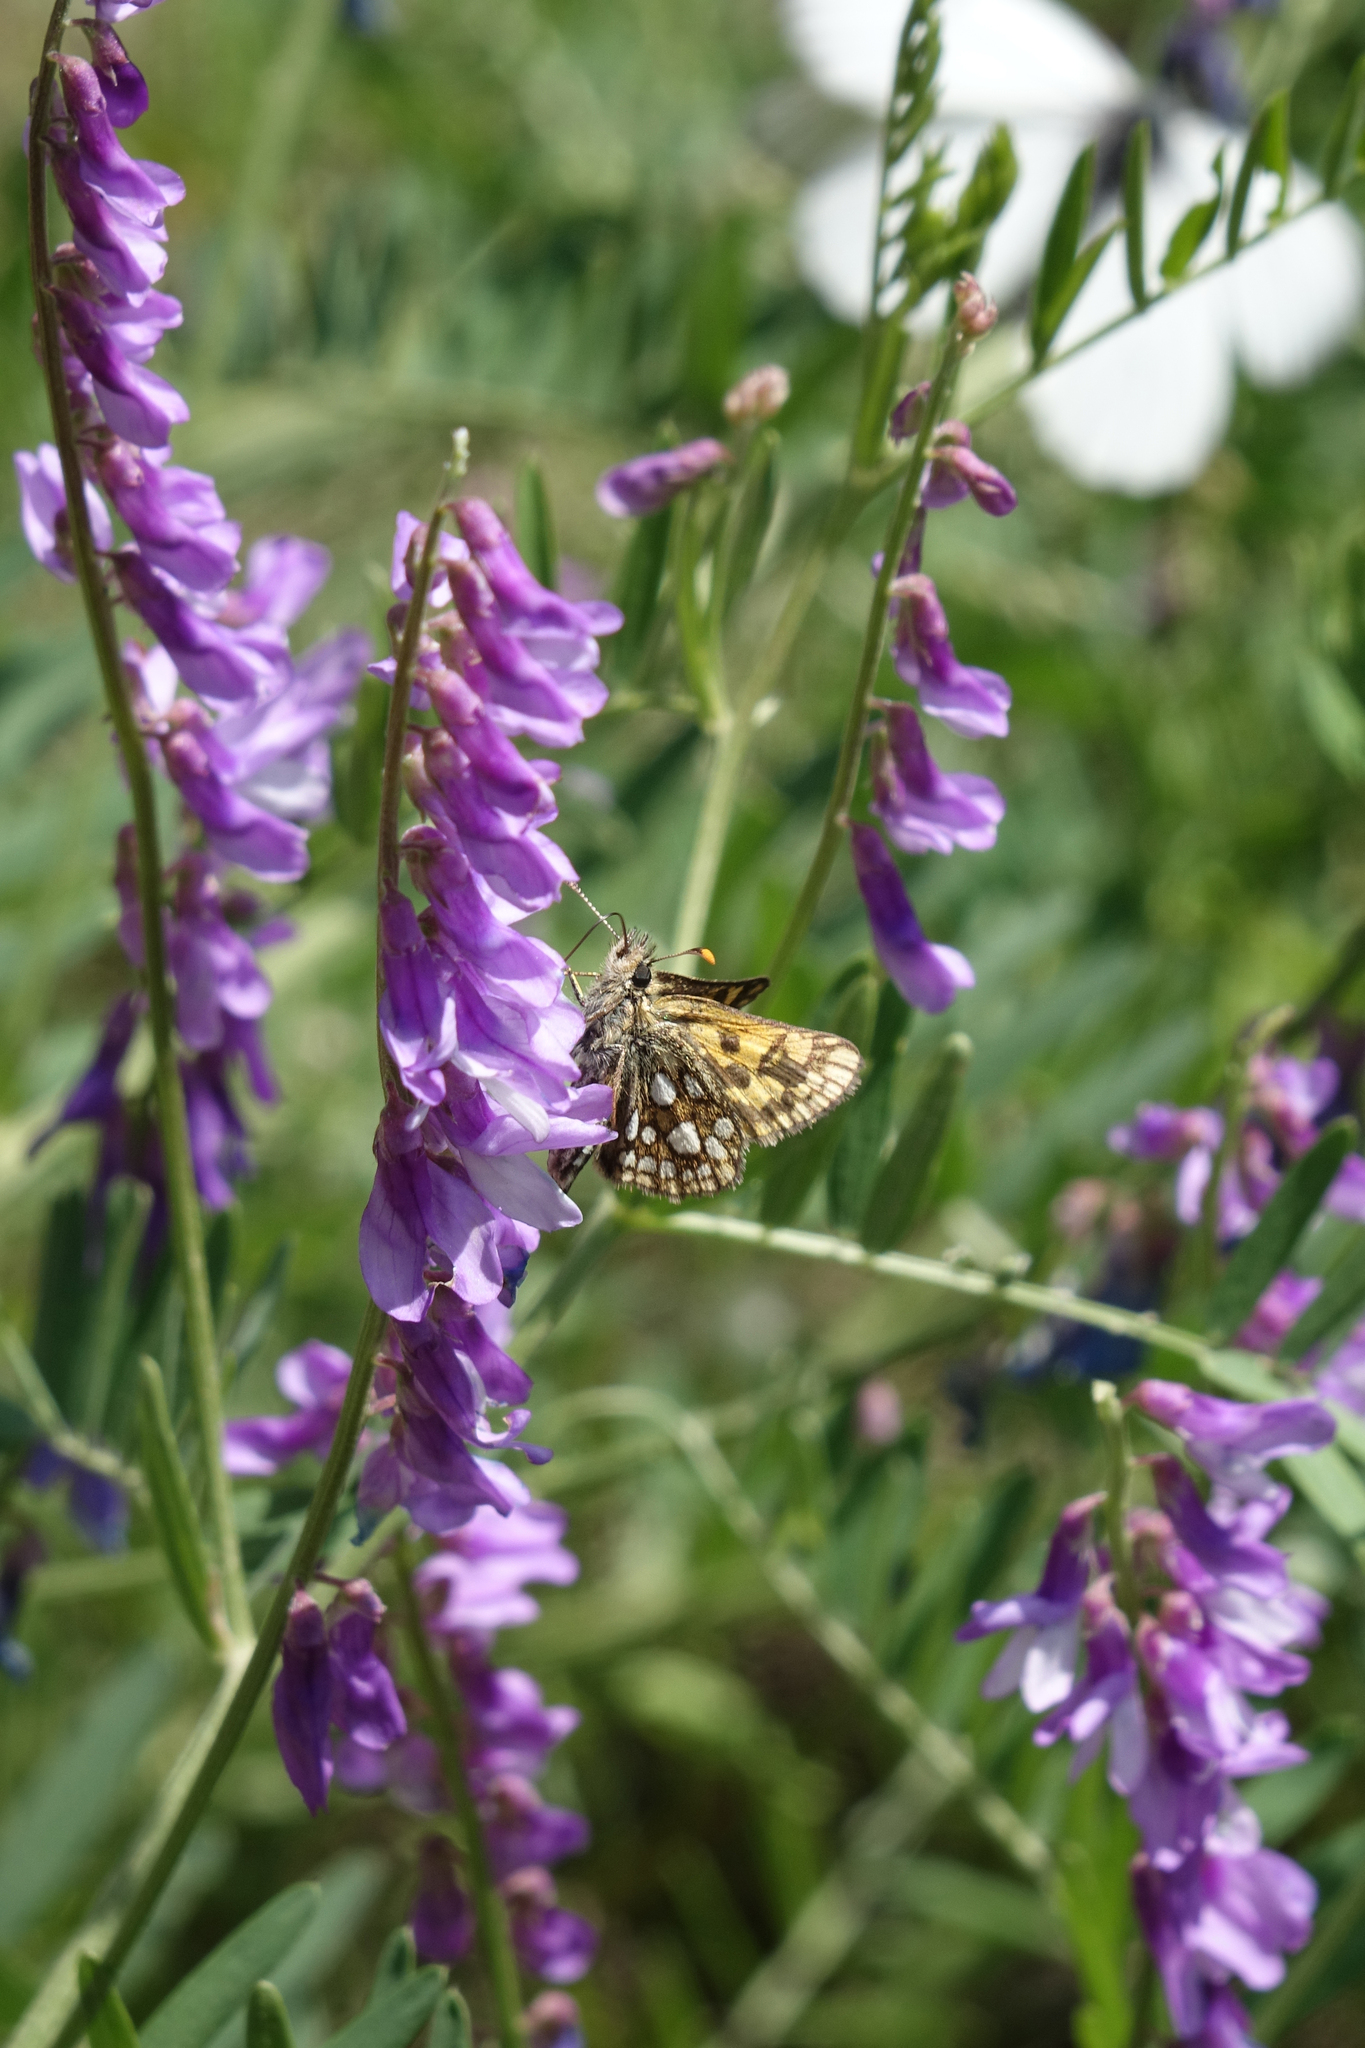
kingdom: Plantae
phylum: Tracheophyta
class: Magnoliopsida
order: Fabales
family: Fabaceae
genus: Vicia
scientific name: Vicia tenuifolia
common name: Fine-leaved vetch
